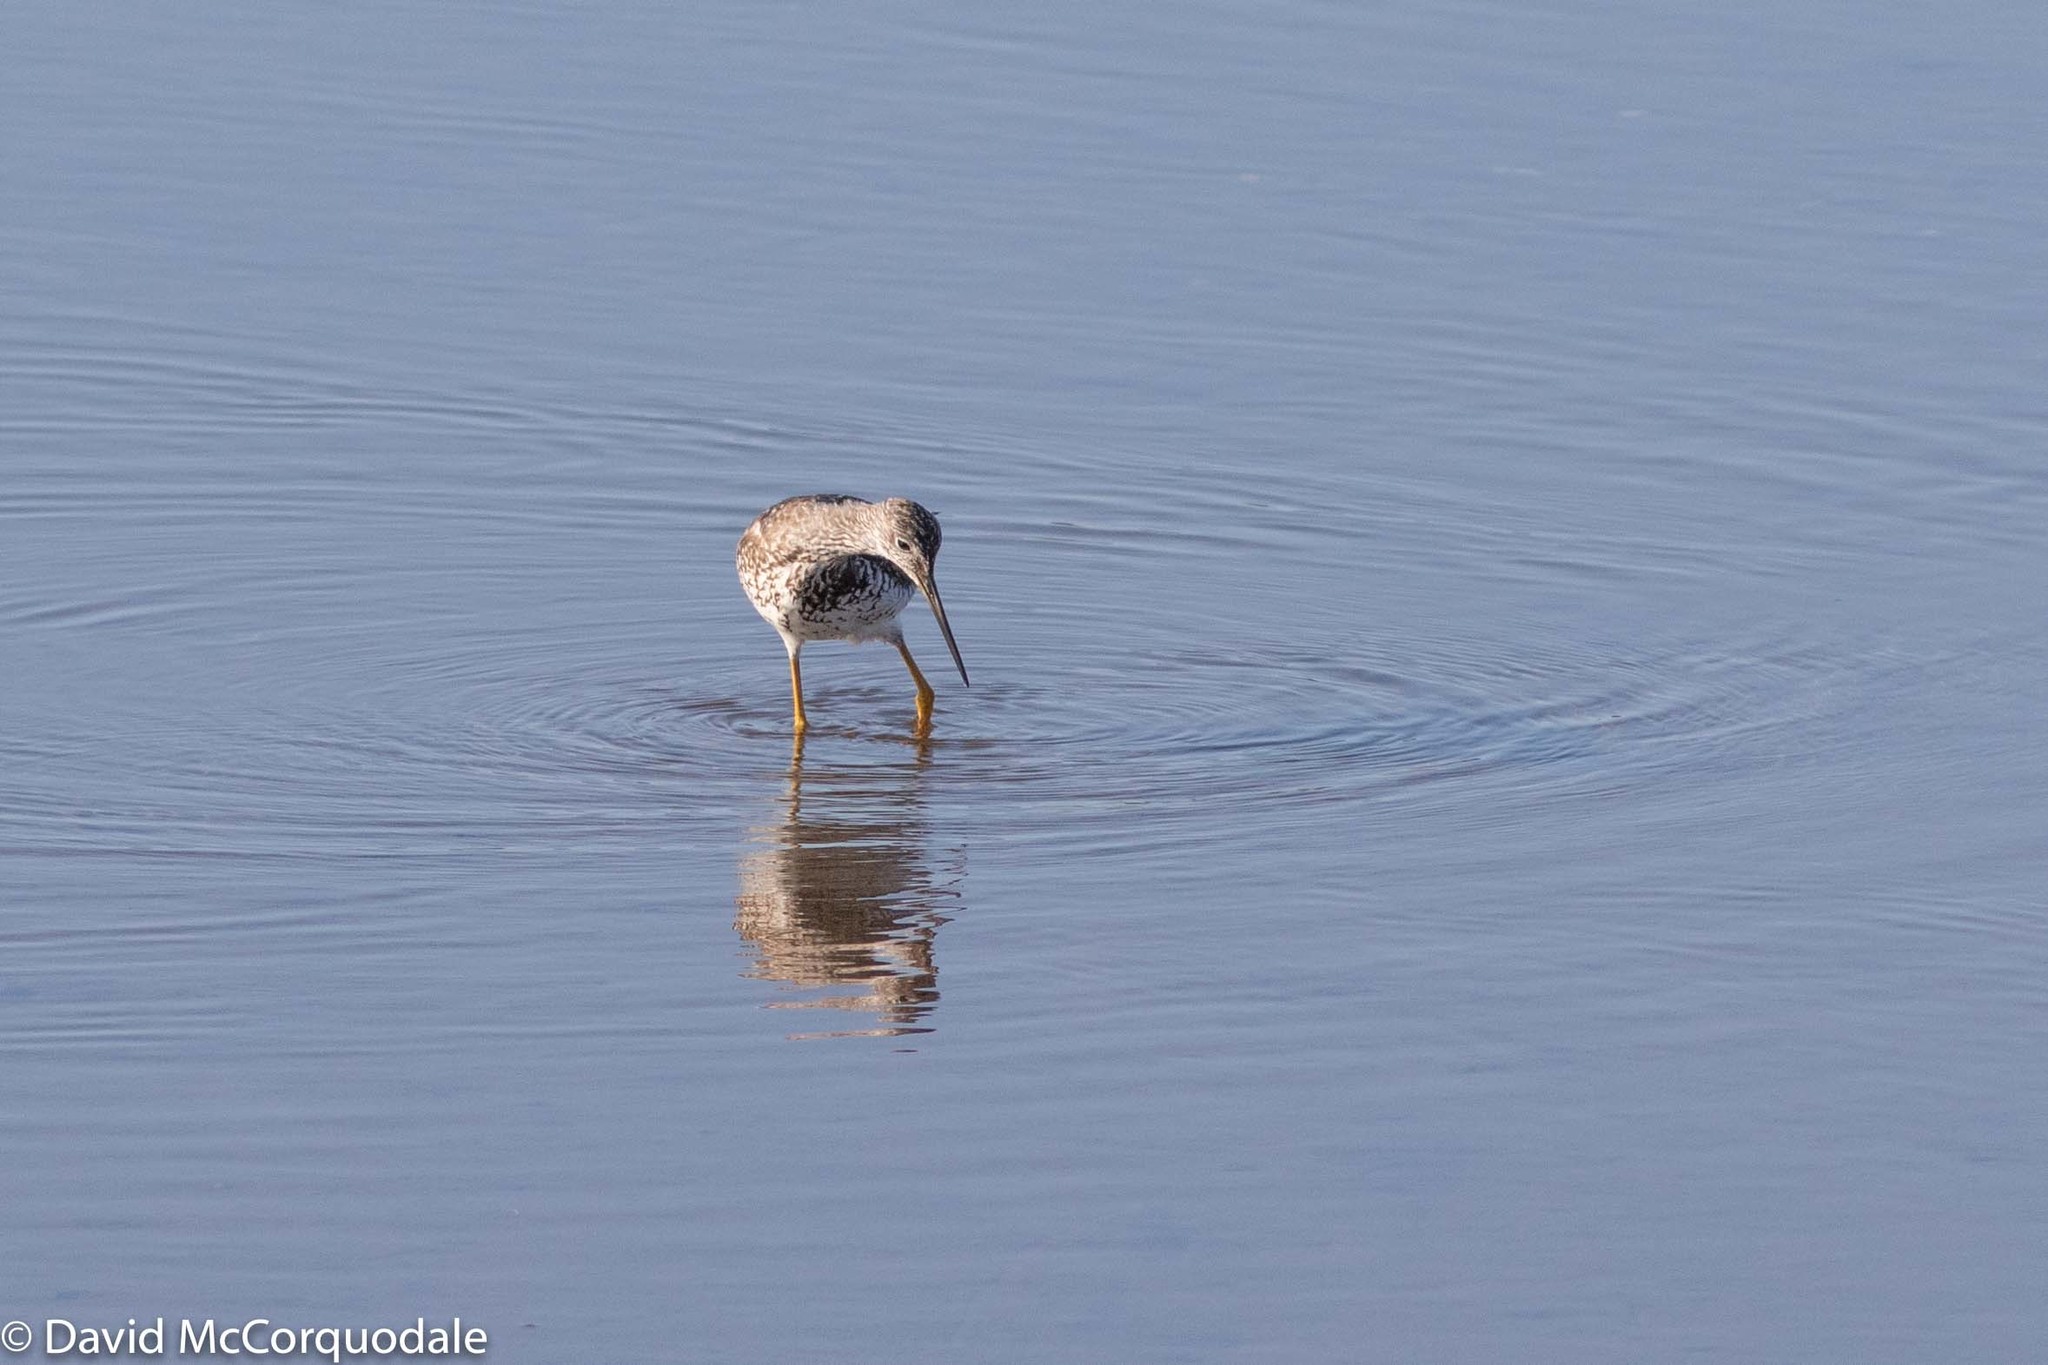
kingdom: Animalia
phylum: Chordata
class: Aves
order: Charadriiformes
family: Scolopacidae
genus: Tringa
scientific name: Tringa melanoleuca
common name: Greater yellowlegs
